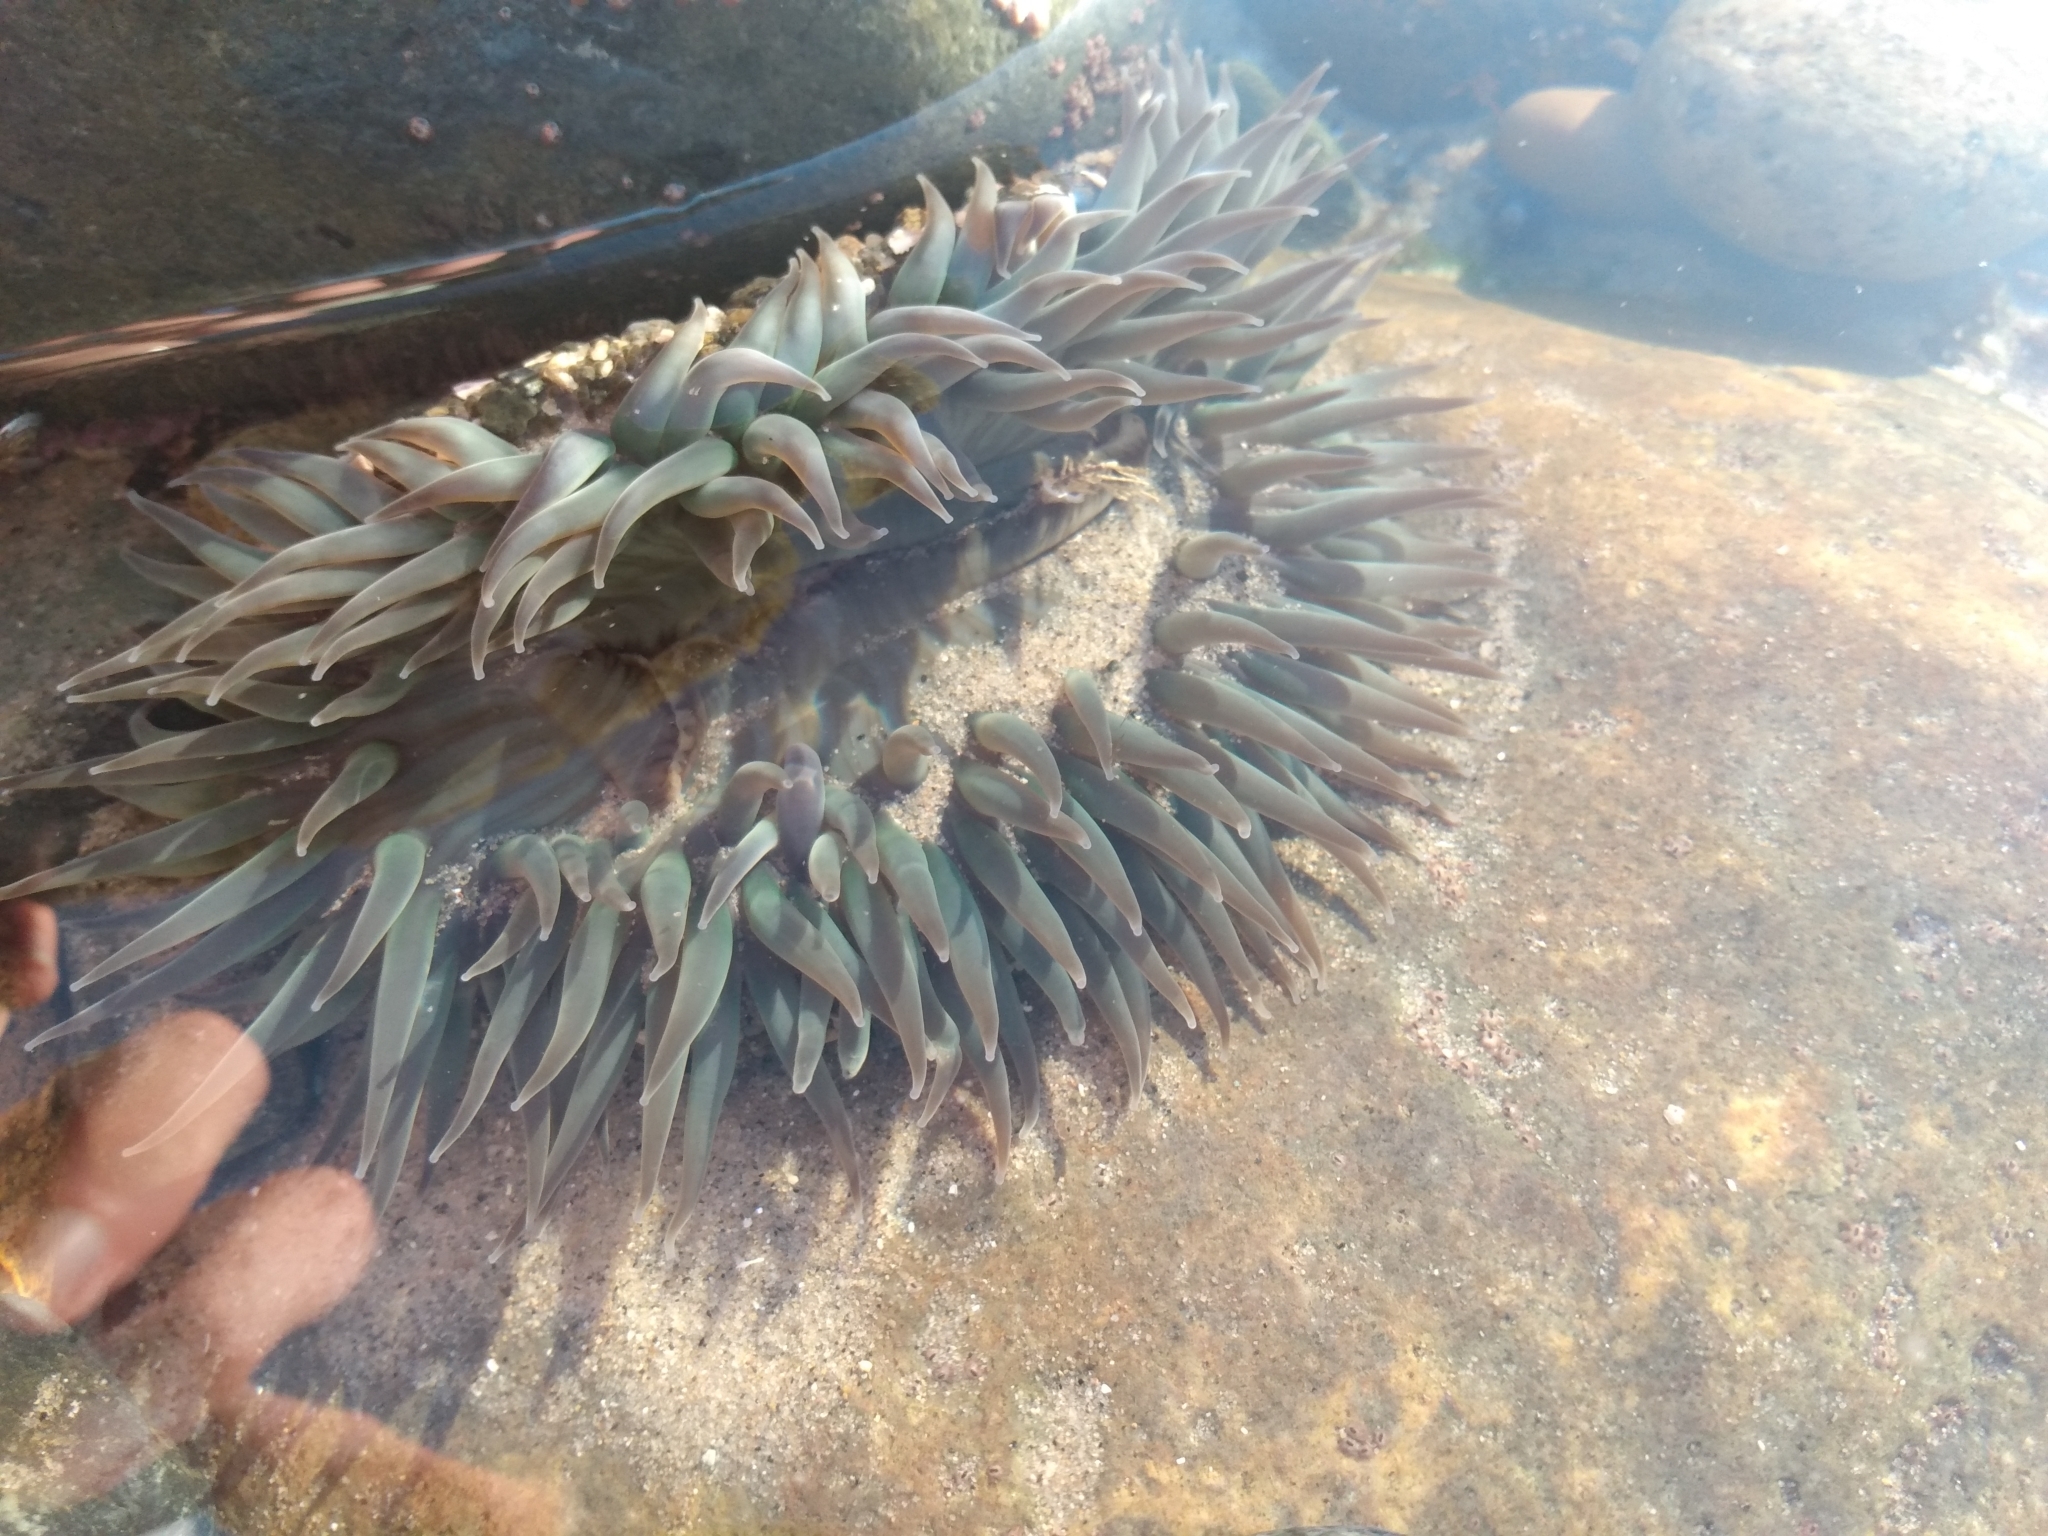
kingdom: Animalia
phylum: Cnidaria
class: Anthozoa
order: Actiniaria
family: Actiniidae
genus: Anthopleura
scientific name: Anthopleura sola
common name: Sun anemone
